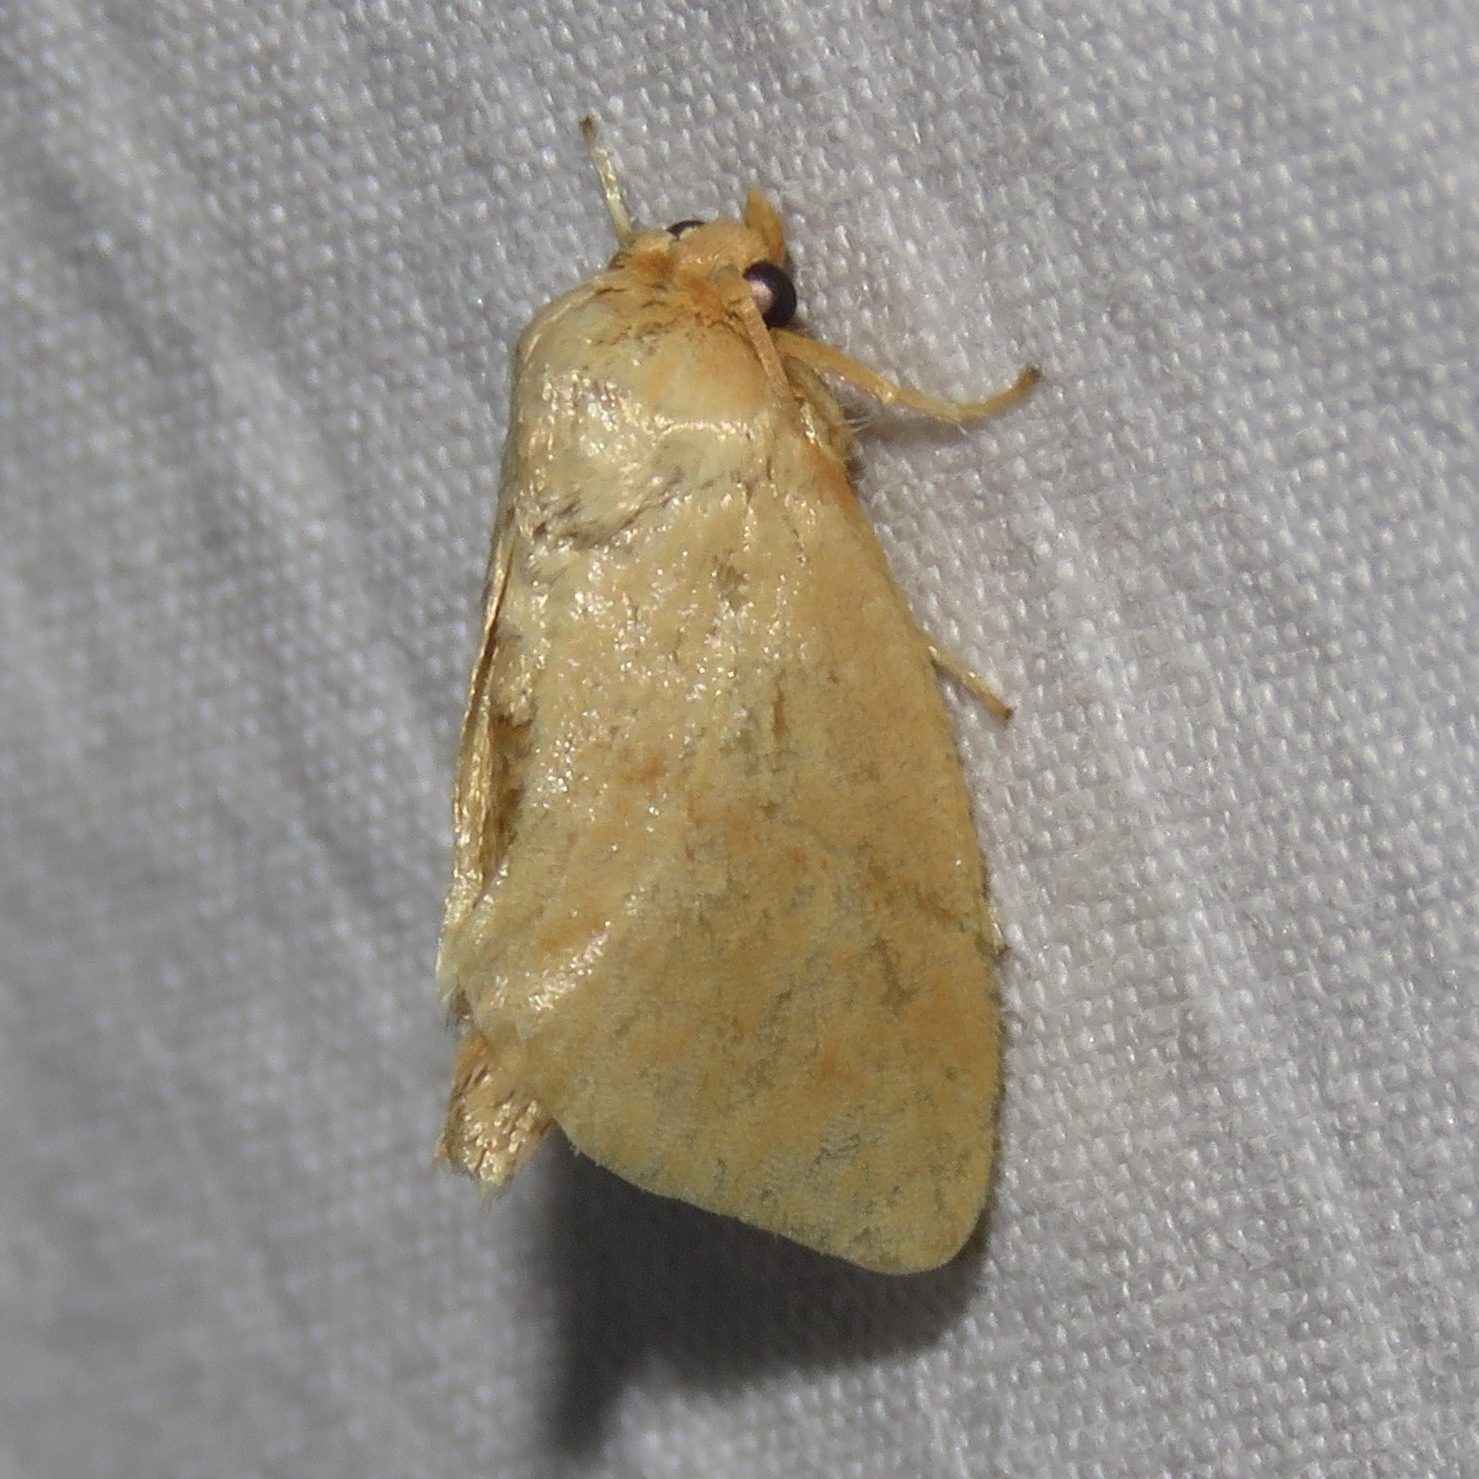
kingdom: Animalia
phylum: Arthropoda
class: Insecta
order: Lepidoptera
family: Limacodidae
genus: Tortricidia
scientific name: Tortricidia pallida
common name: Red-crossed button slug moth
